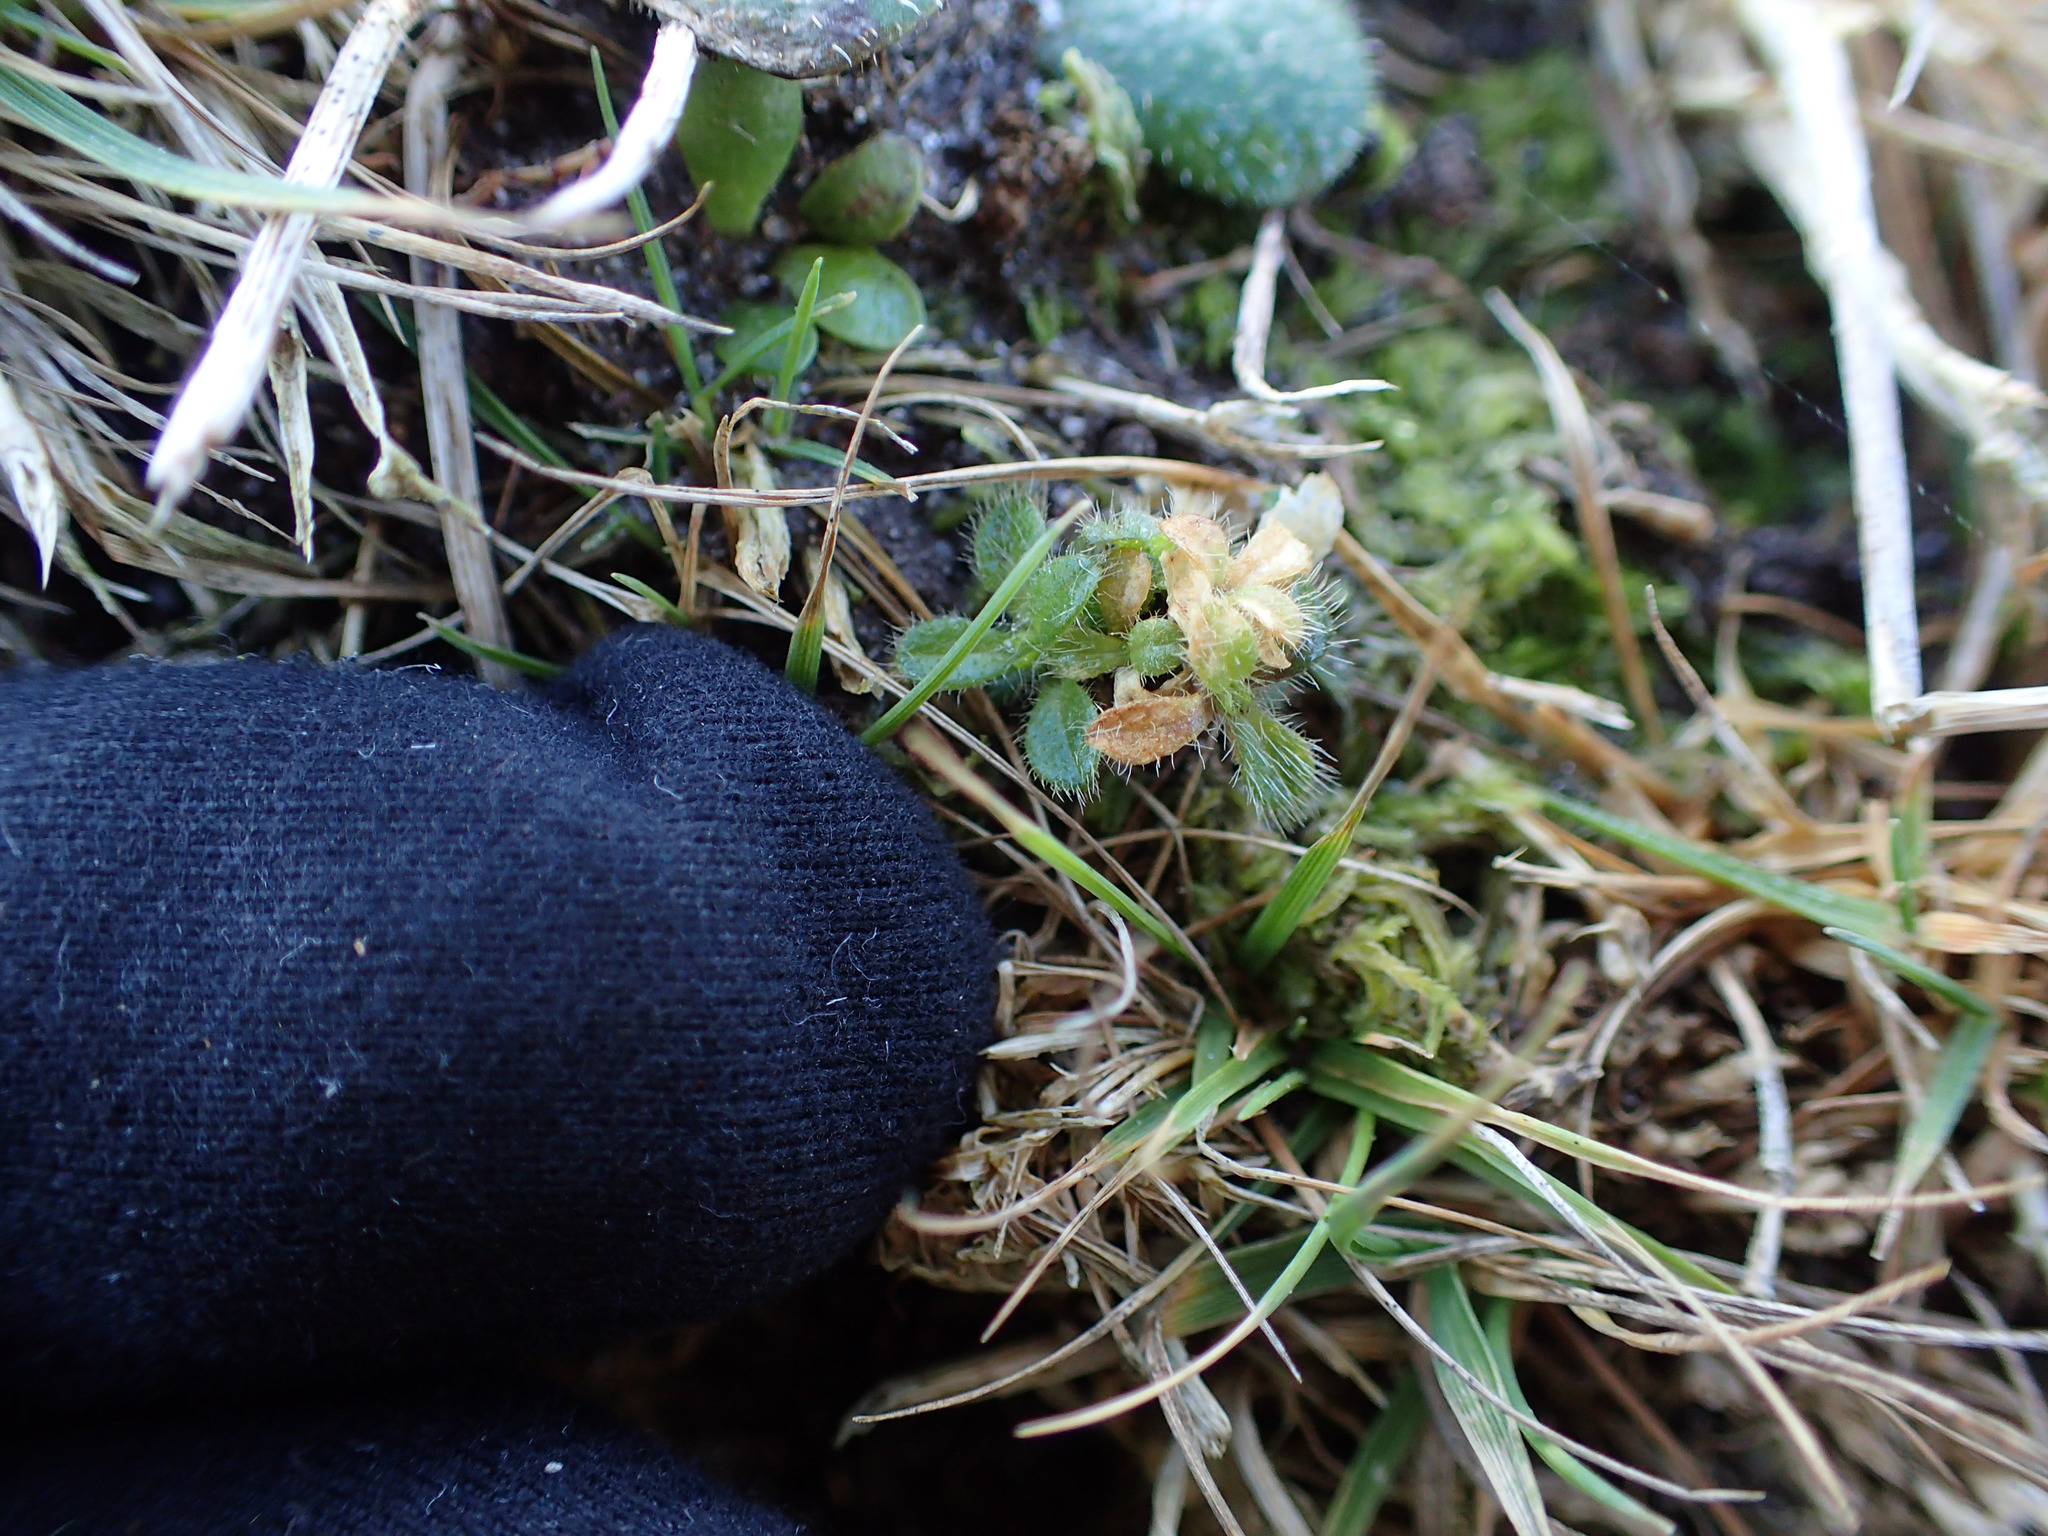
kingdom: Plantae
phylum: Tracheophyta
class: Magnoliopsida
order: Caryophyllales
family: Caryophyllaceae
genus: Cerastium
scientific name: Cerastium fontanum
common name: Common mouse-ear
